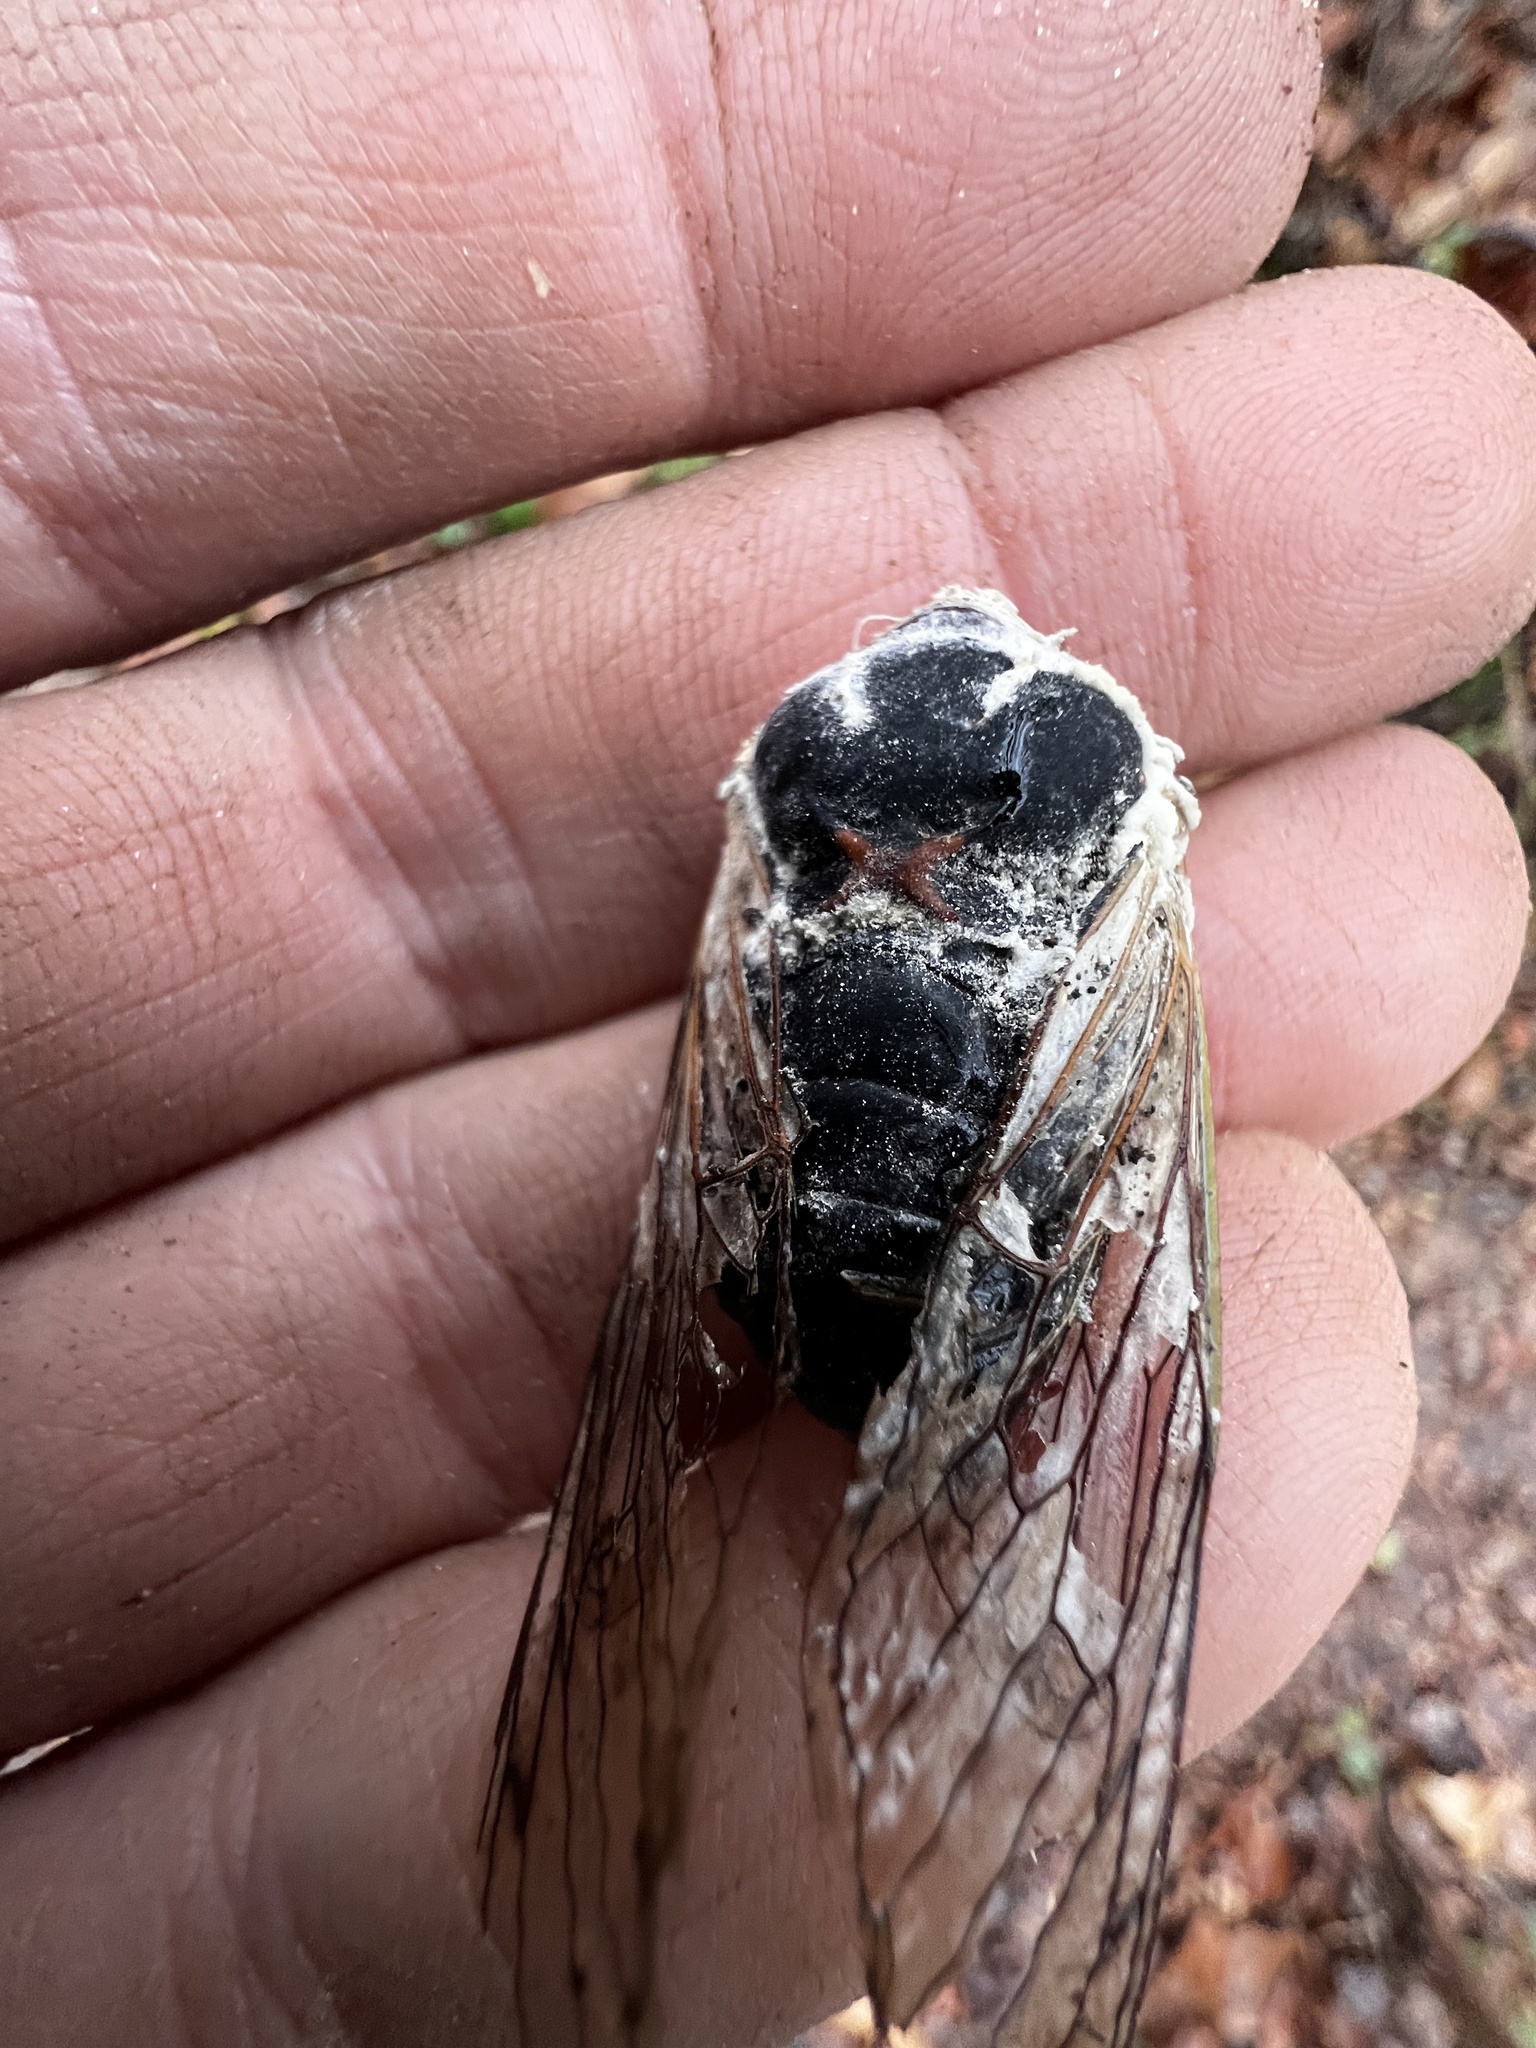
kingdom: Fungi
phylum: Ascomycota
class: Sordariomycetes
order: Hypocreales
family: Cordycipitaceae
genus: Beauveria
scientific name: Beauveria bassiana
